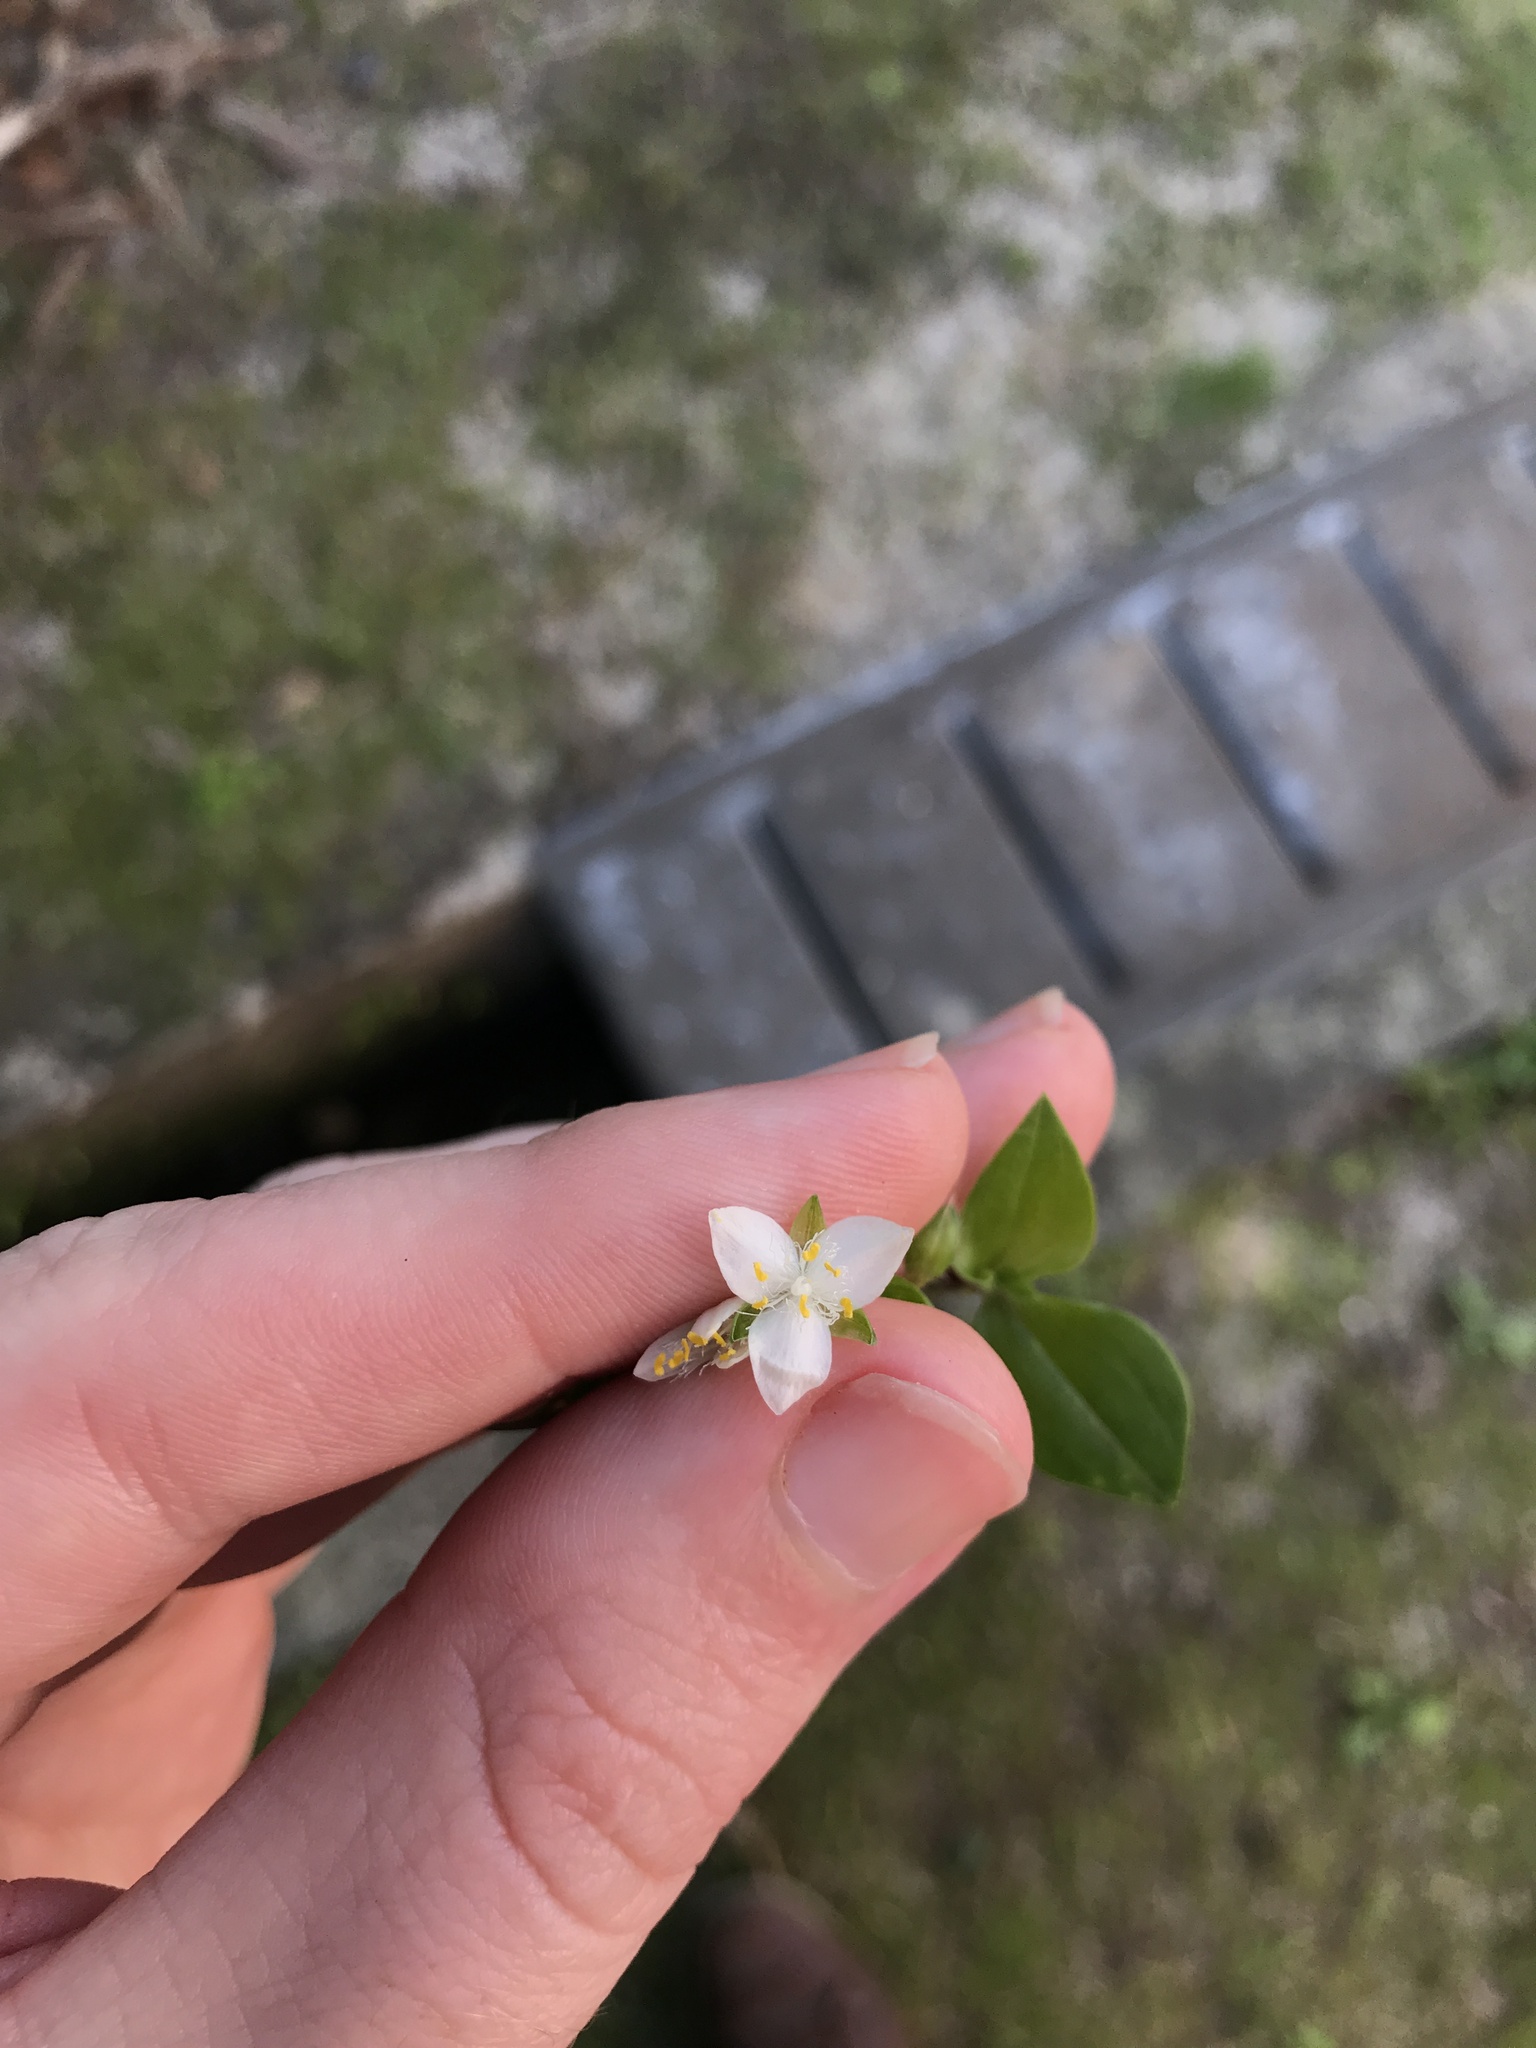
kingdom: Plantae
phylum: Tracheophyta
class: Liliopsida
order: Commelinales
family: Commelinaceae
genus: Tradescantia
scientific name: Tradescantia fluminensis
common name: Wandering-jew
